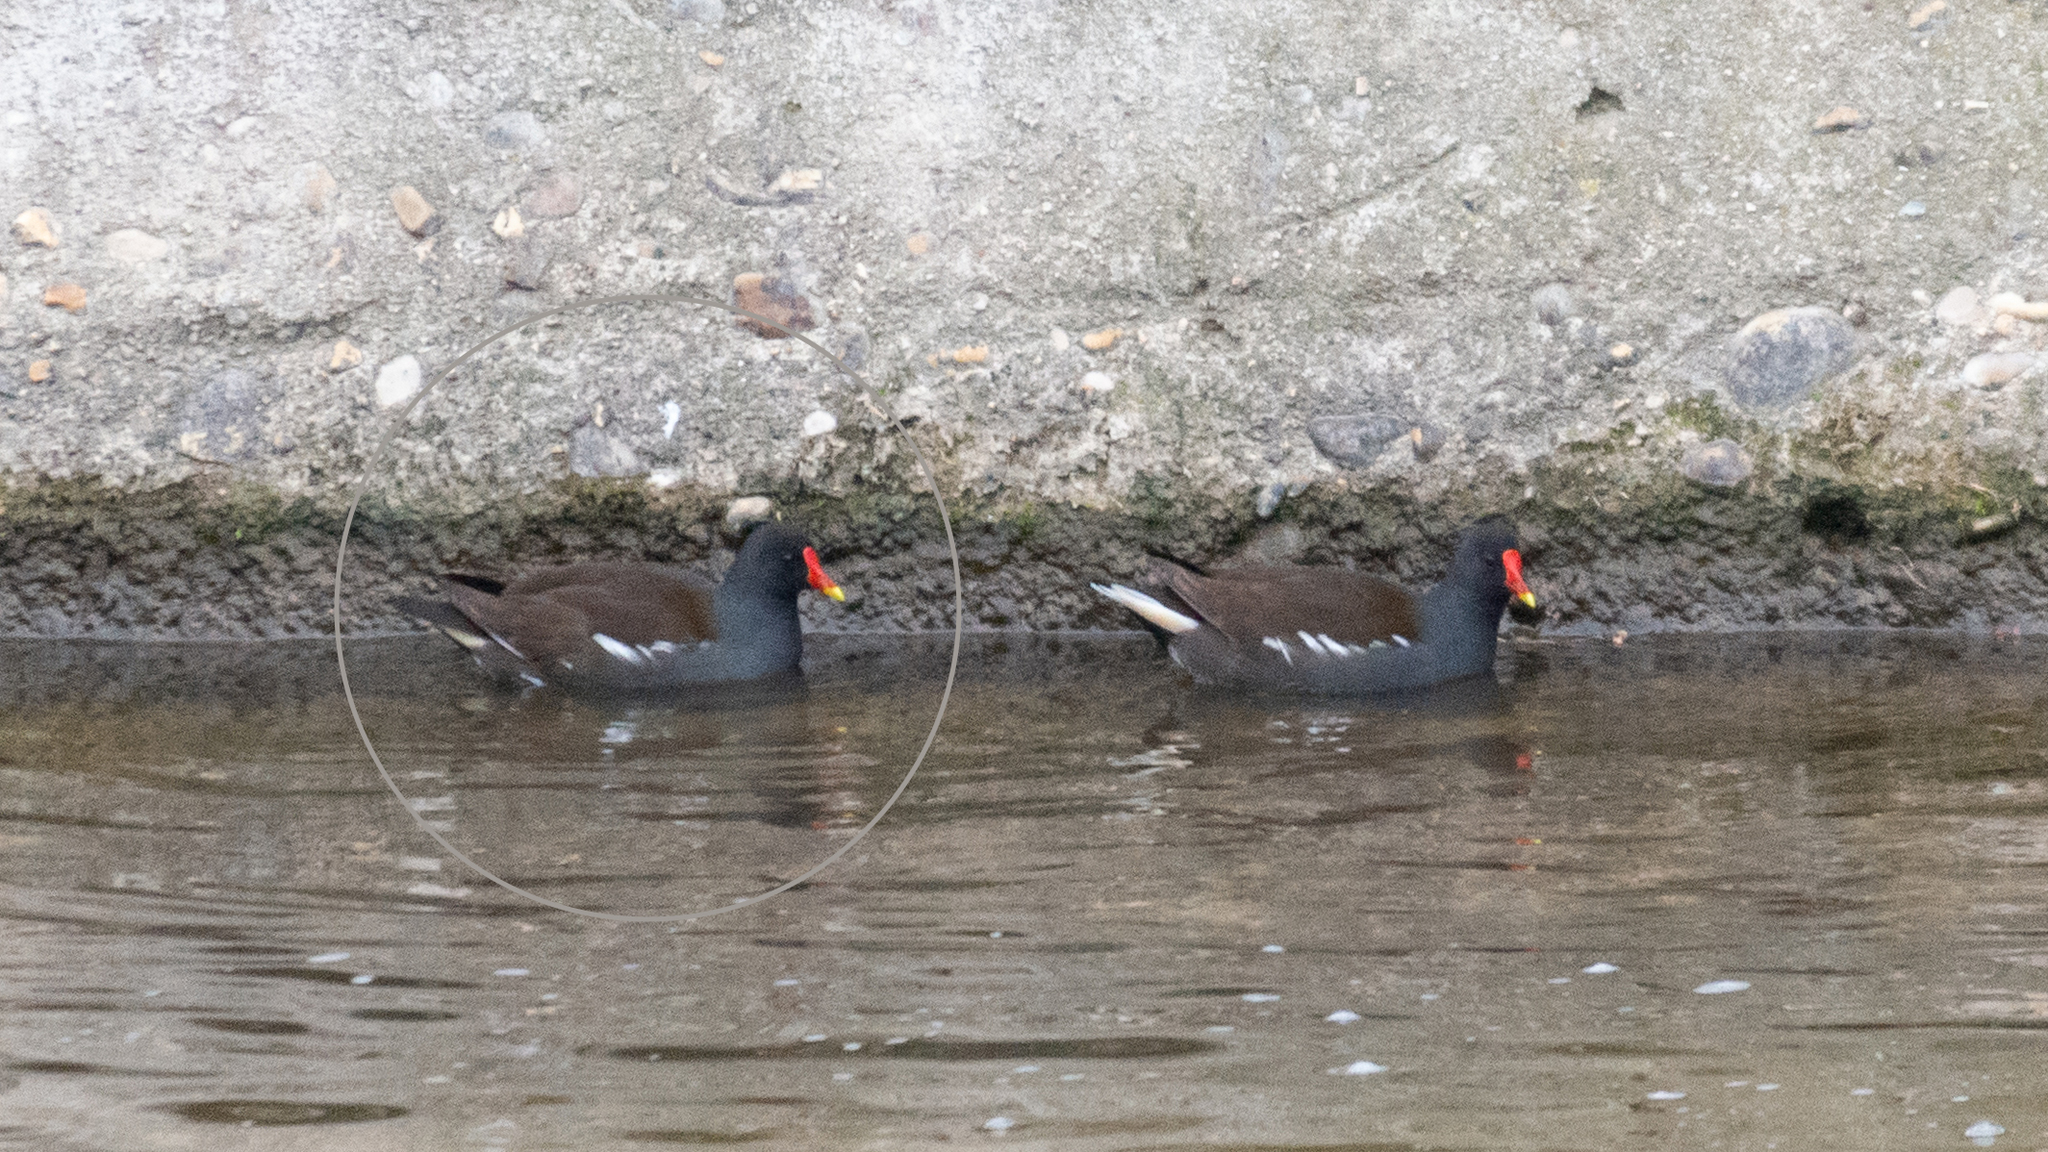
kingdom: Animalia
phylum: Chordata
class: Aves
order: Gruiformes
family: Rallidae
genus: Gallinula
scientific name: Gallinula chloropus
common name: Common moorhen
